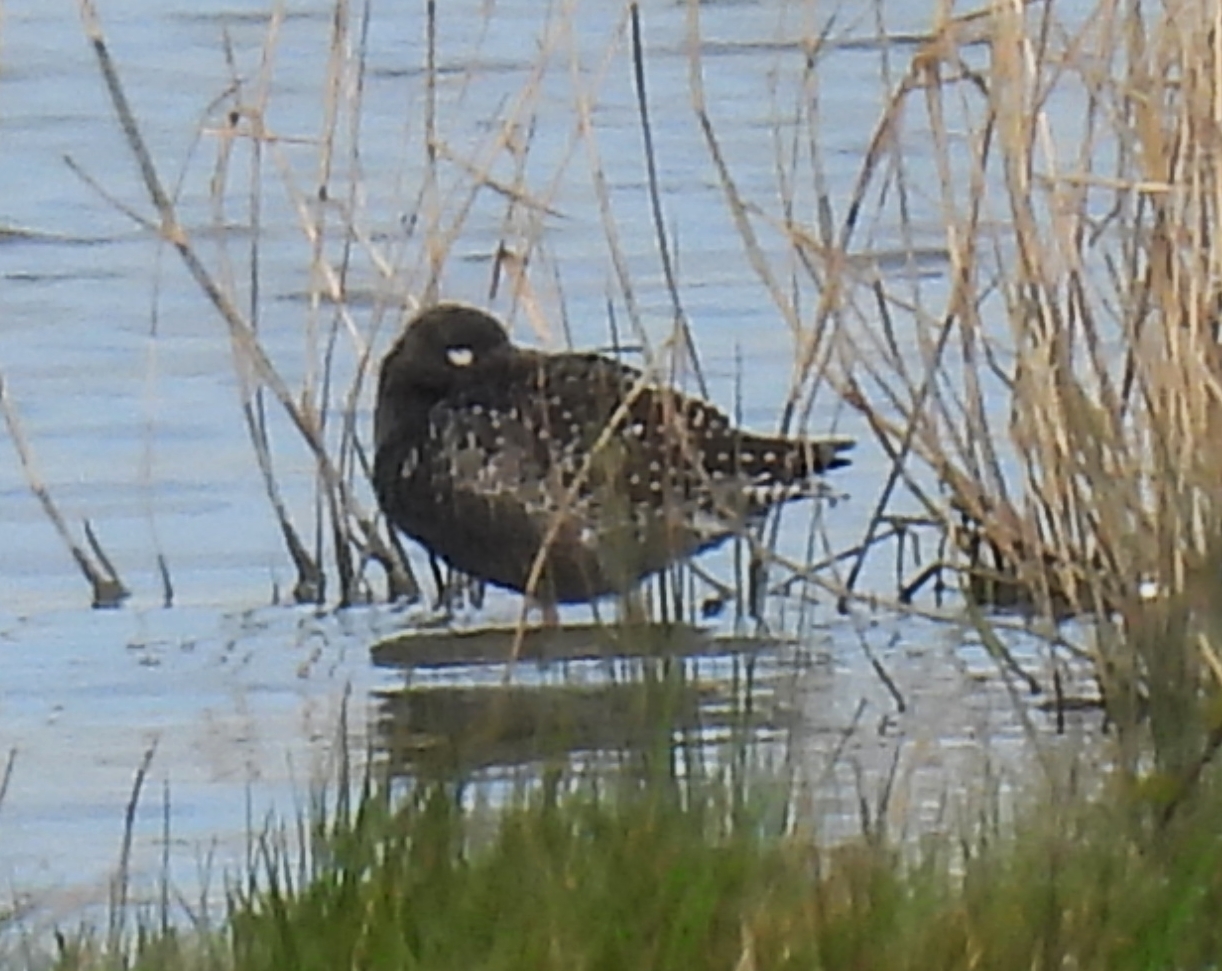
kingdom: Animalia
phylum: Chordata
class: Aves
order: Charadriiformes
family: Scolopacidae
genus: Tringa
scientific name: Tringa erythropus
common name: Spotted redshank
